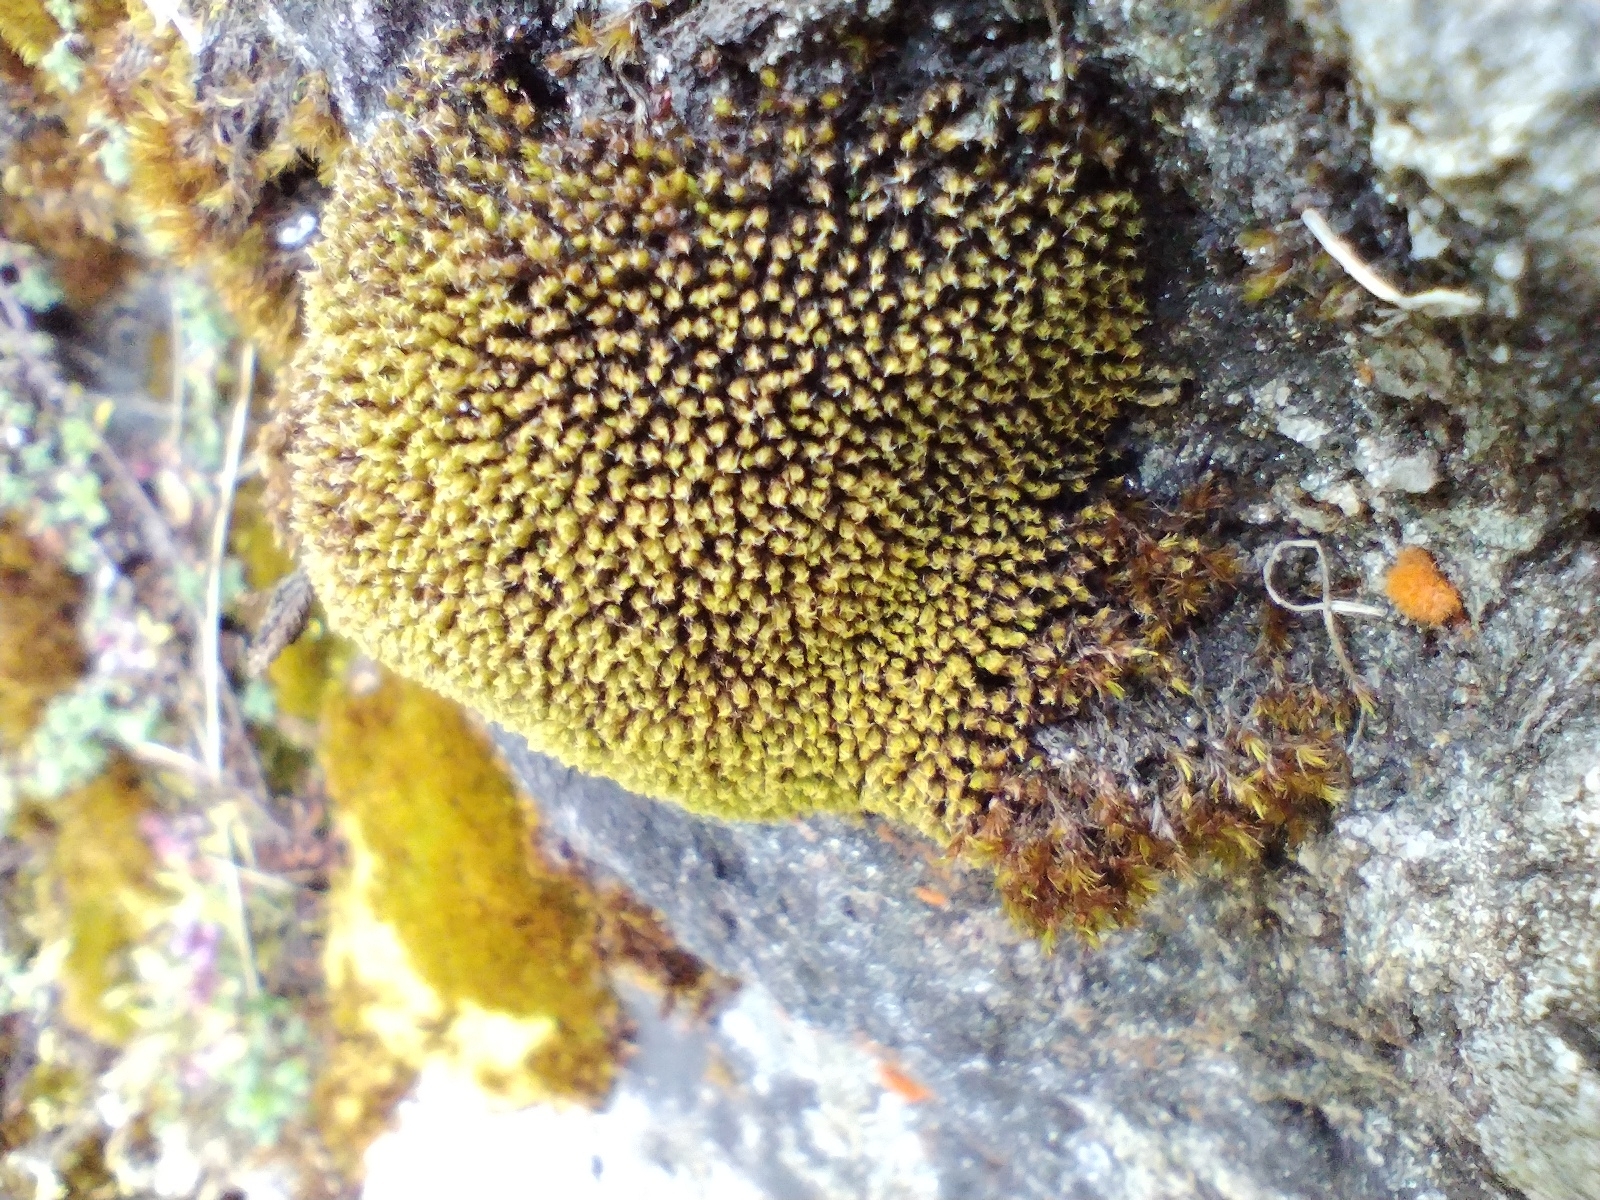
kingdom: Plantae
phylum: Bryophyta
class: Bryopsida
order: Grimmiales
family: Grimmiaceae
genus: Grimmia
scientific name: Grimmia torquata
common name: Twisted grimmia
